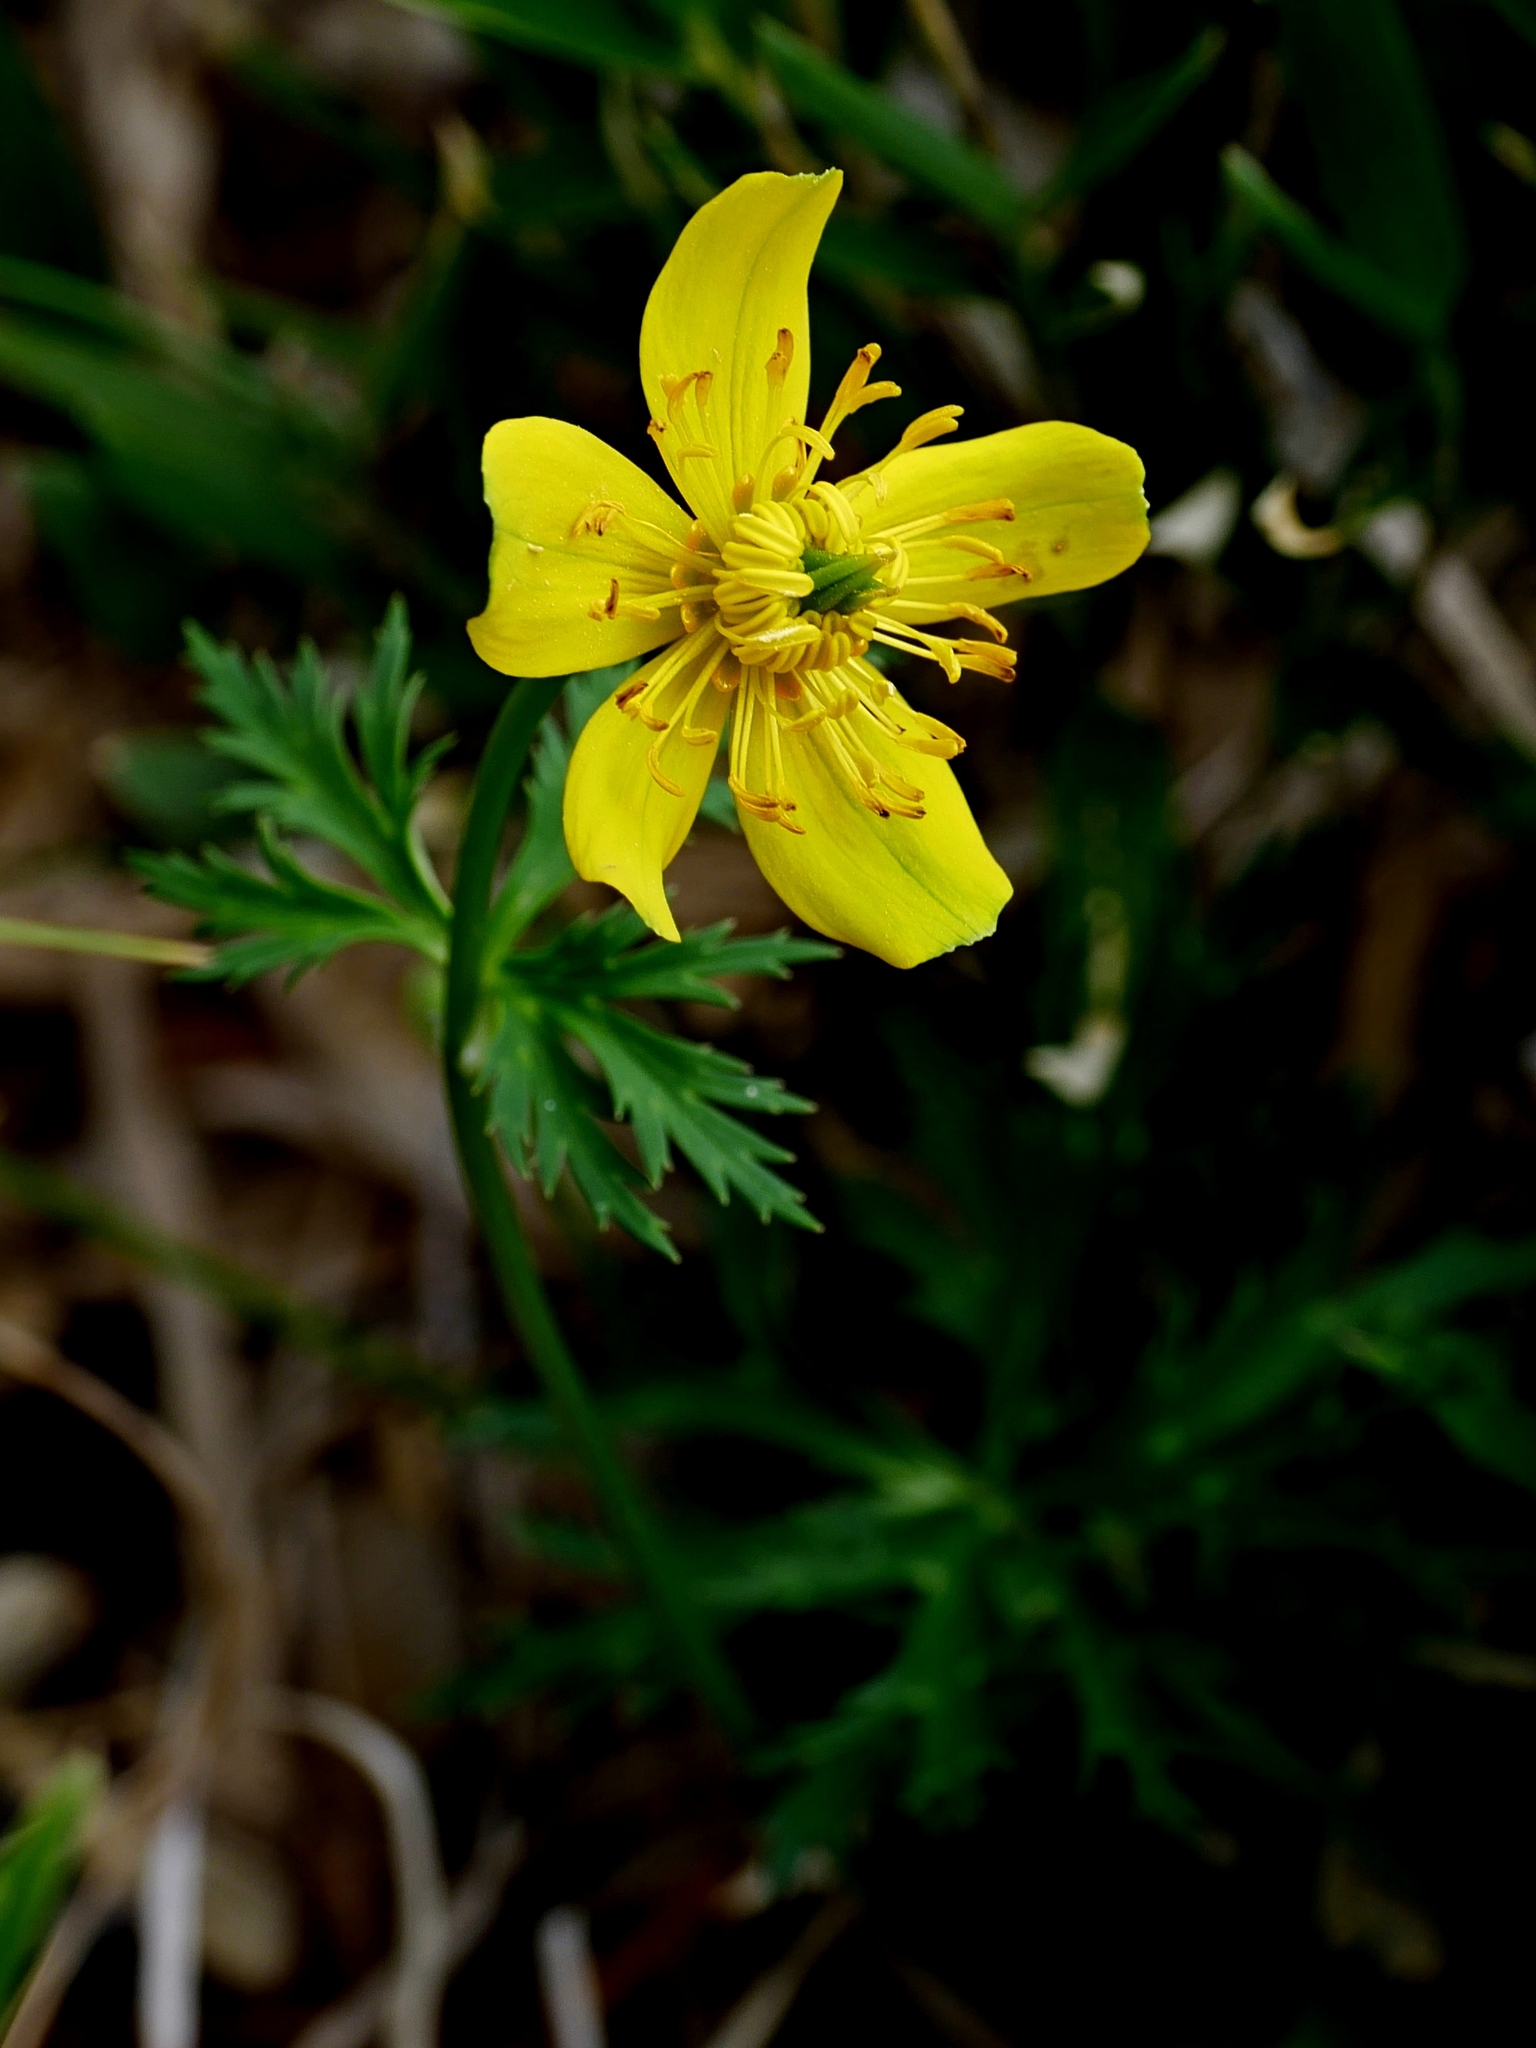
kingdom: Plantae
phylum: Tracheophyta
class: Magnoliopsida
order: Ranunculales
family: Ranunculaceae
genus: Trollius
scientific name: Trollius taihasenzanensis
